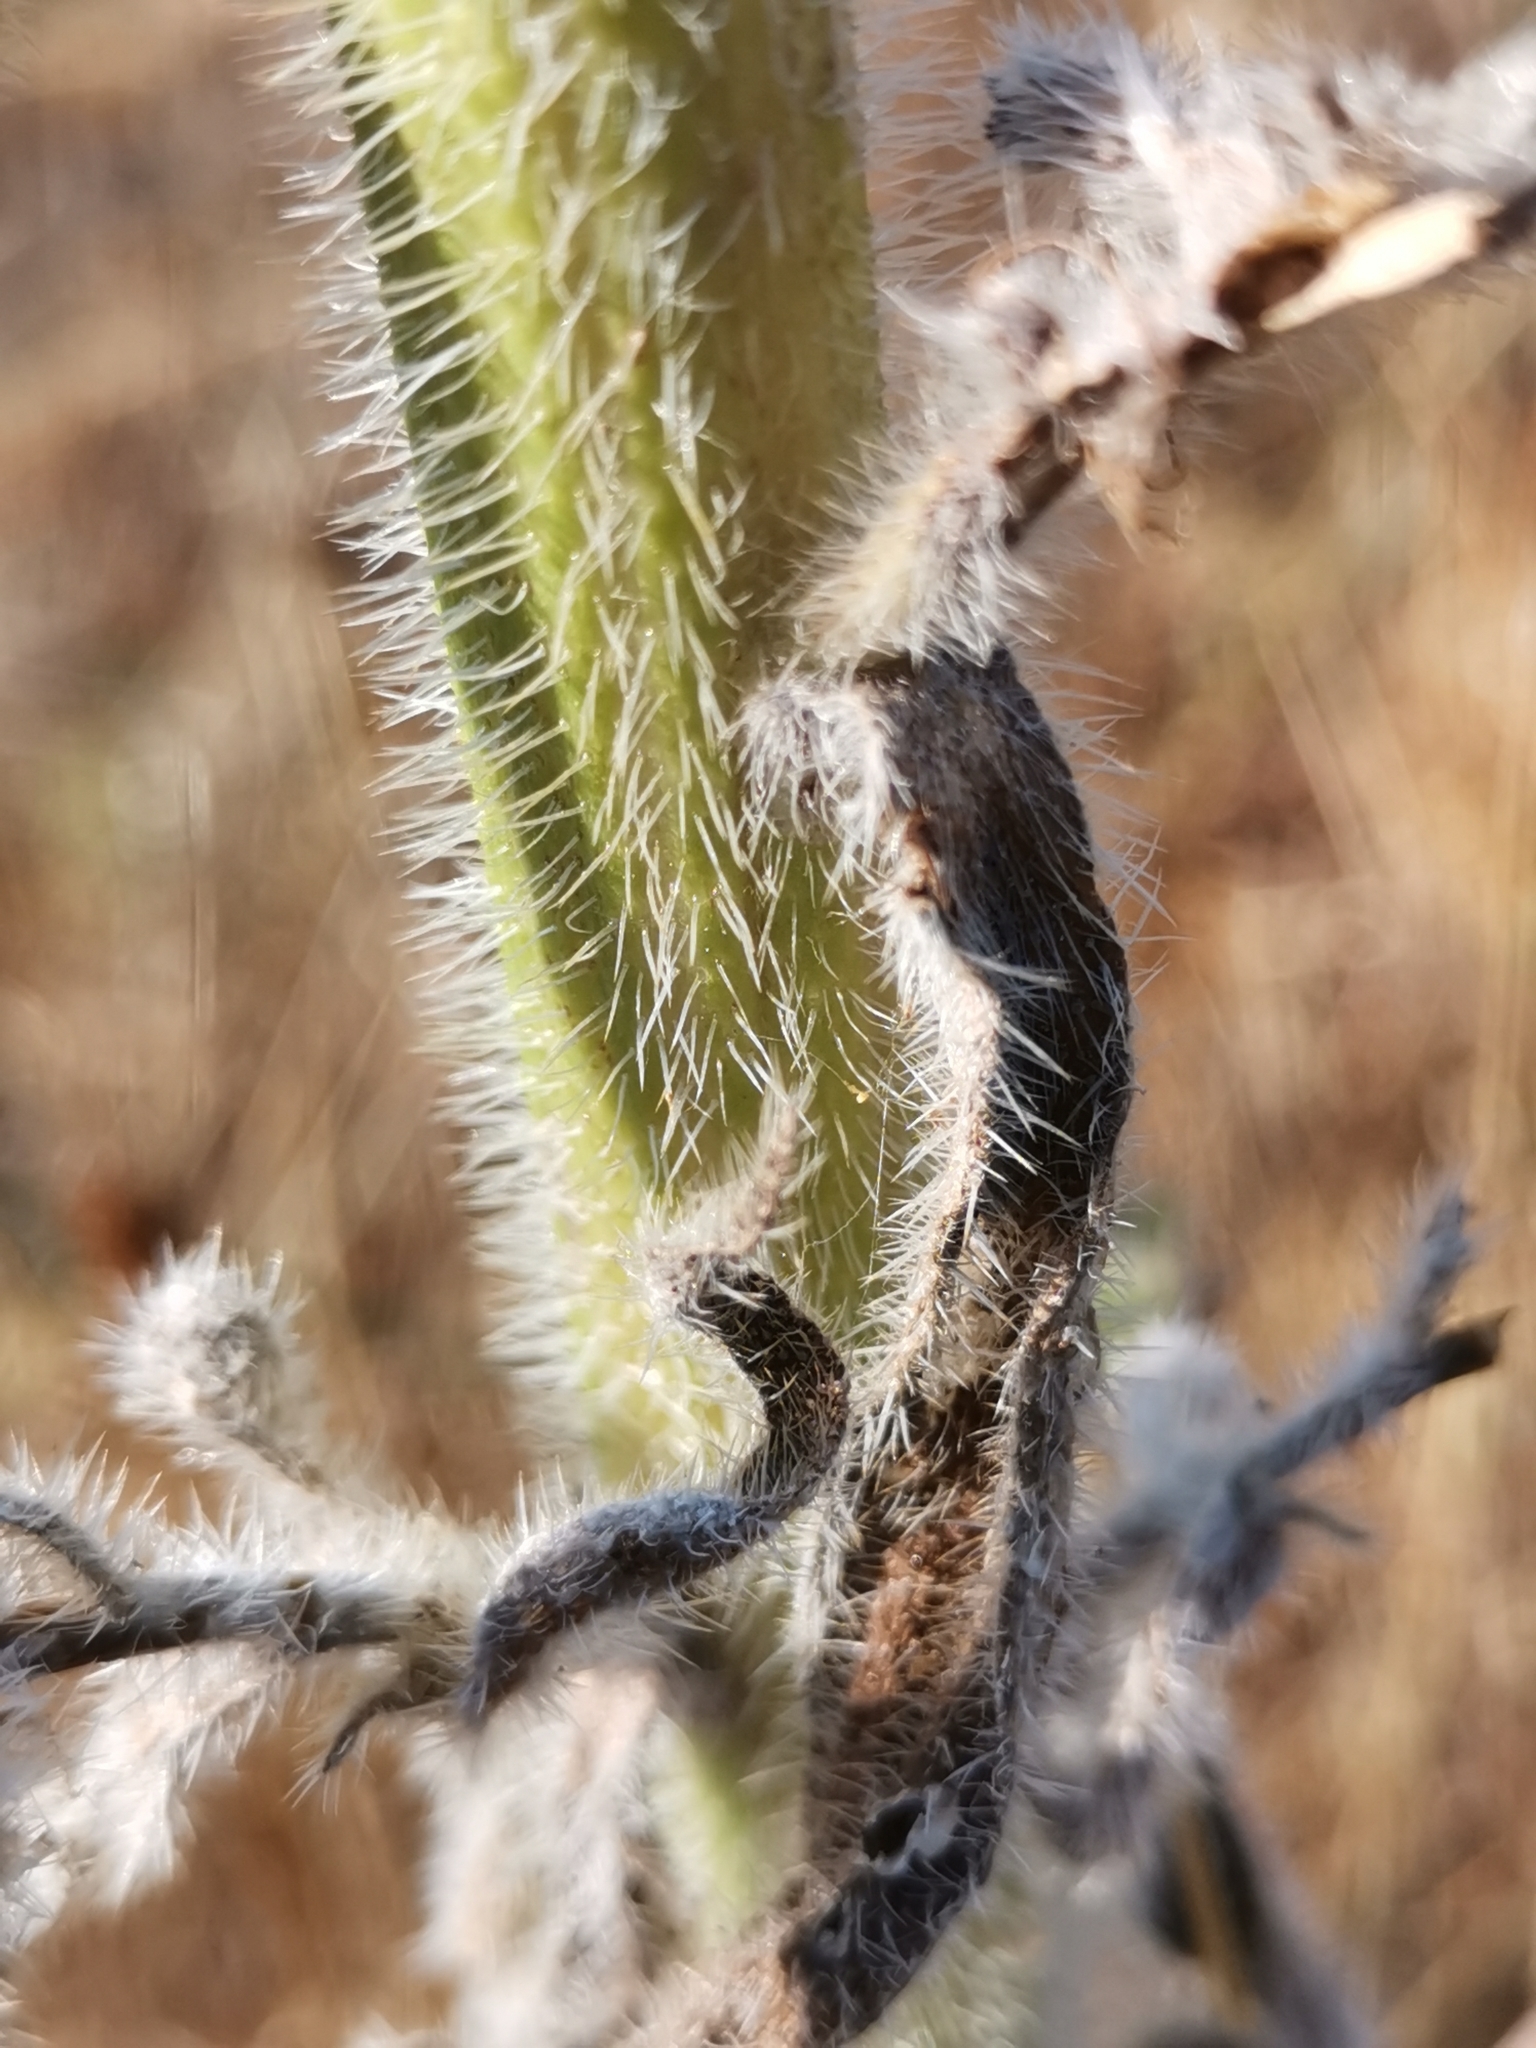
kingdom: Plantae
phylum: Tracheophyta
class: Magnoliopsida
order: Boraginales
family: Boraginaceae
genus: Echium
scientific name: Echium italicum
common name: Italian viper's bugloss
